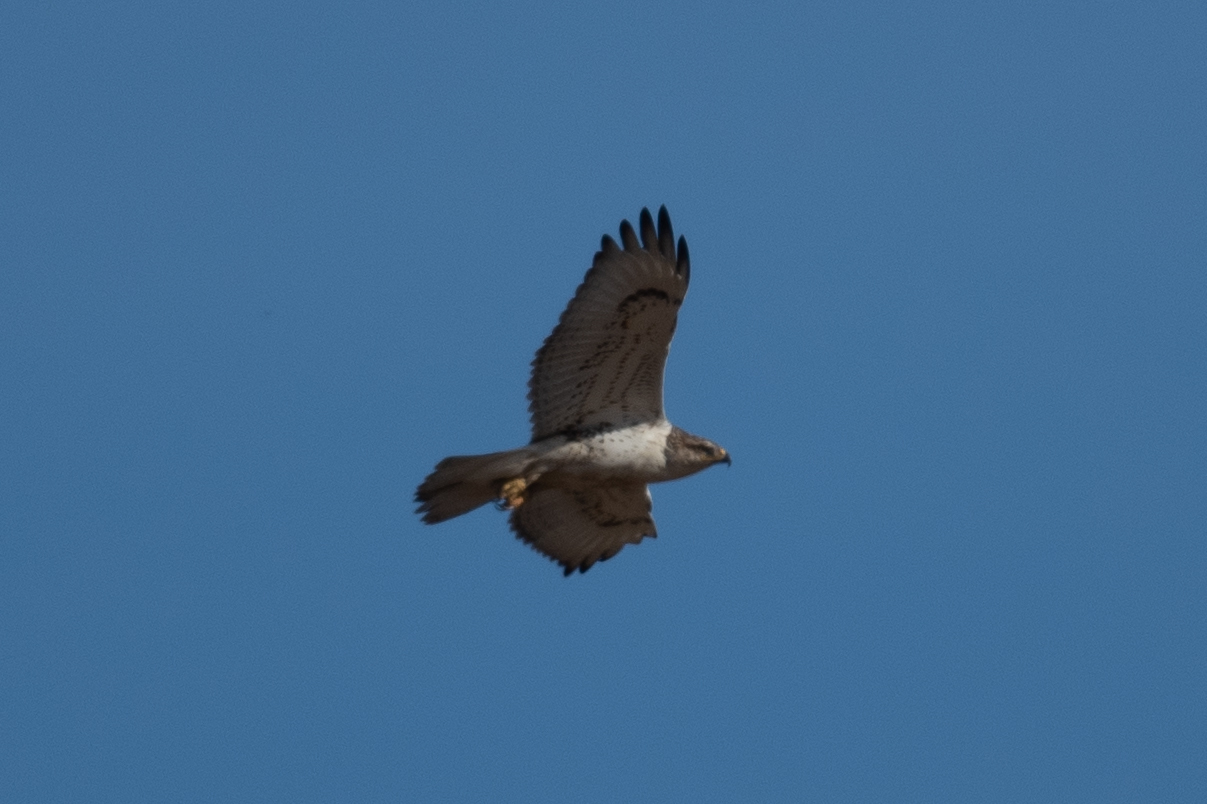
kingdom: Animalia
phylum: Chordata
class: Aves
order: Accipitriformes
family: Accipitridae
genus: Buteo
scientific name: Buteo regalis
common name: Ferruginous hawk
